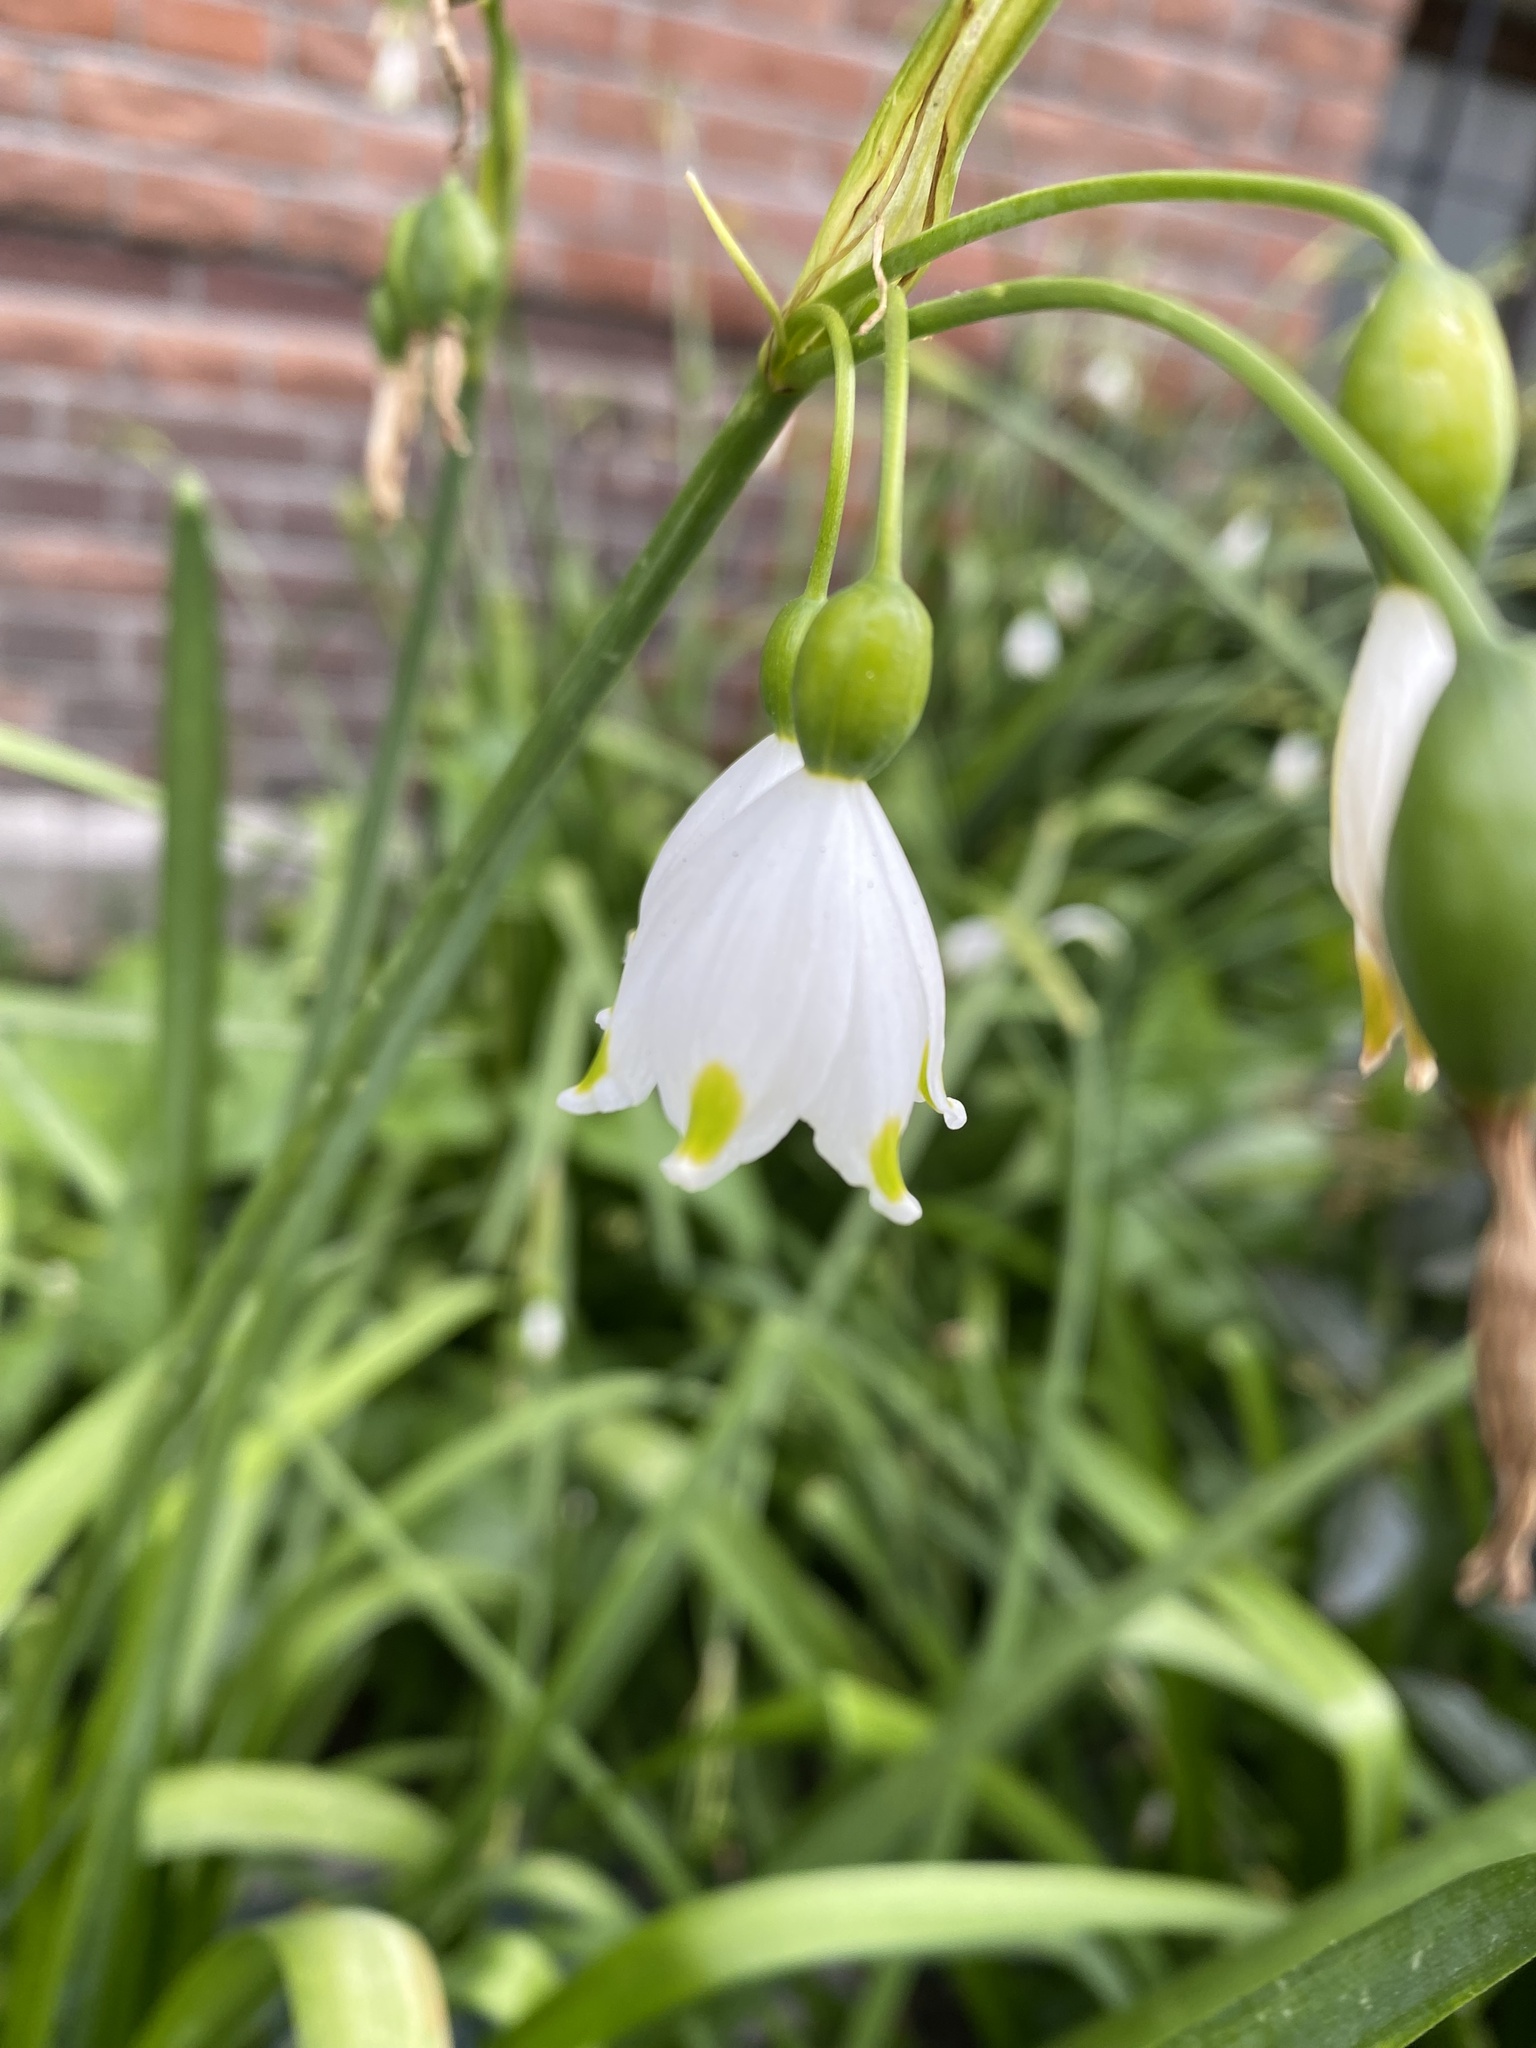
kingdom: Plantae
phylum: Tracheophyta
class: Liliopsida
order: Asparagales
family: Amaryllidaceae
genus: Leucojum
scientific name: Leucojum aestivum
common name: Summer snowflake
